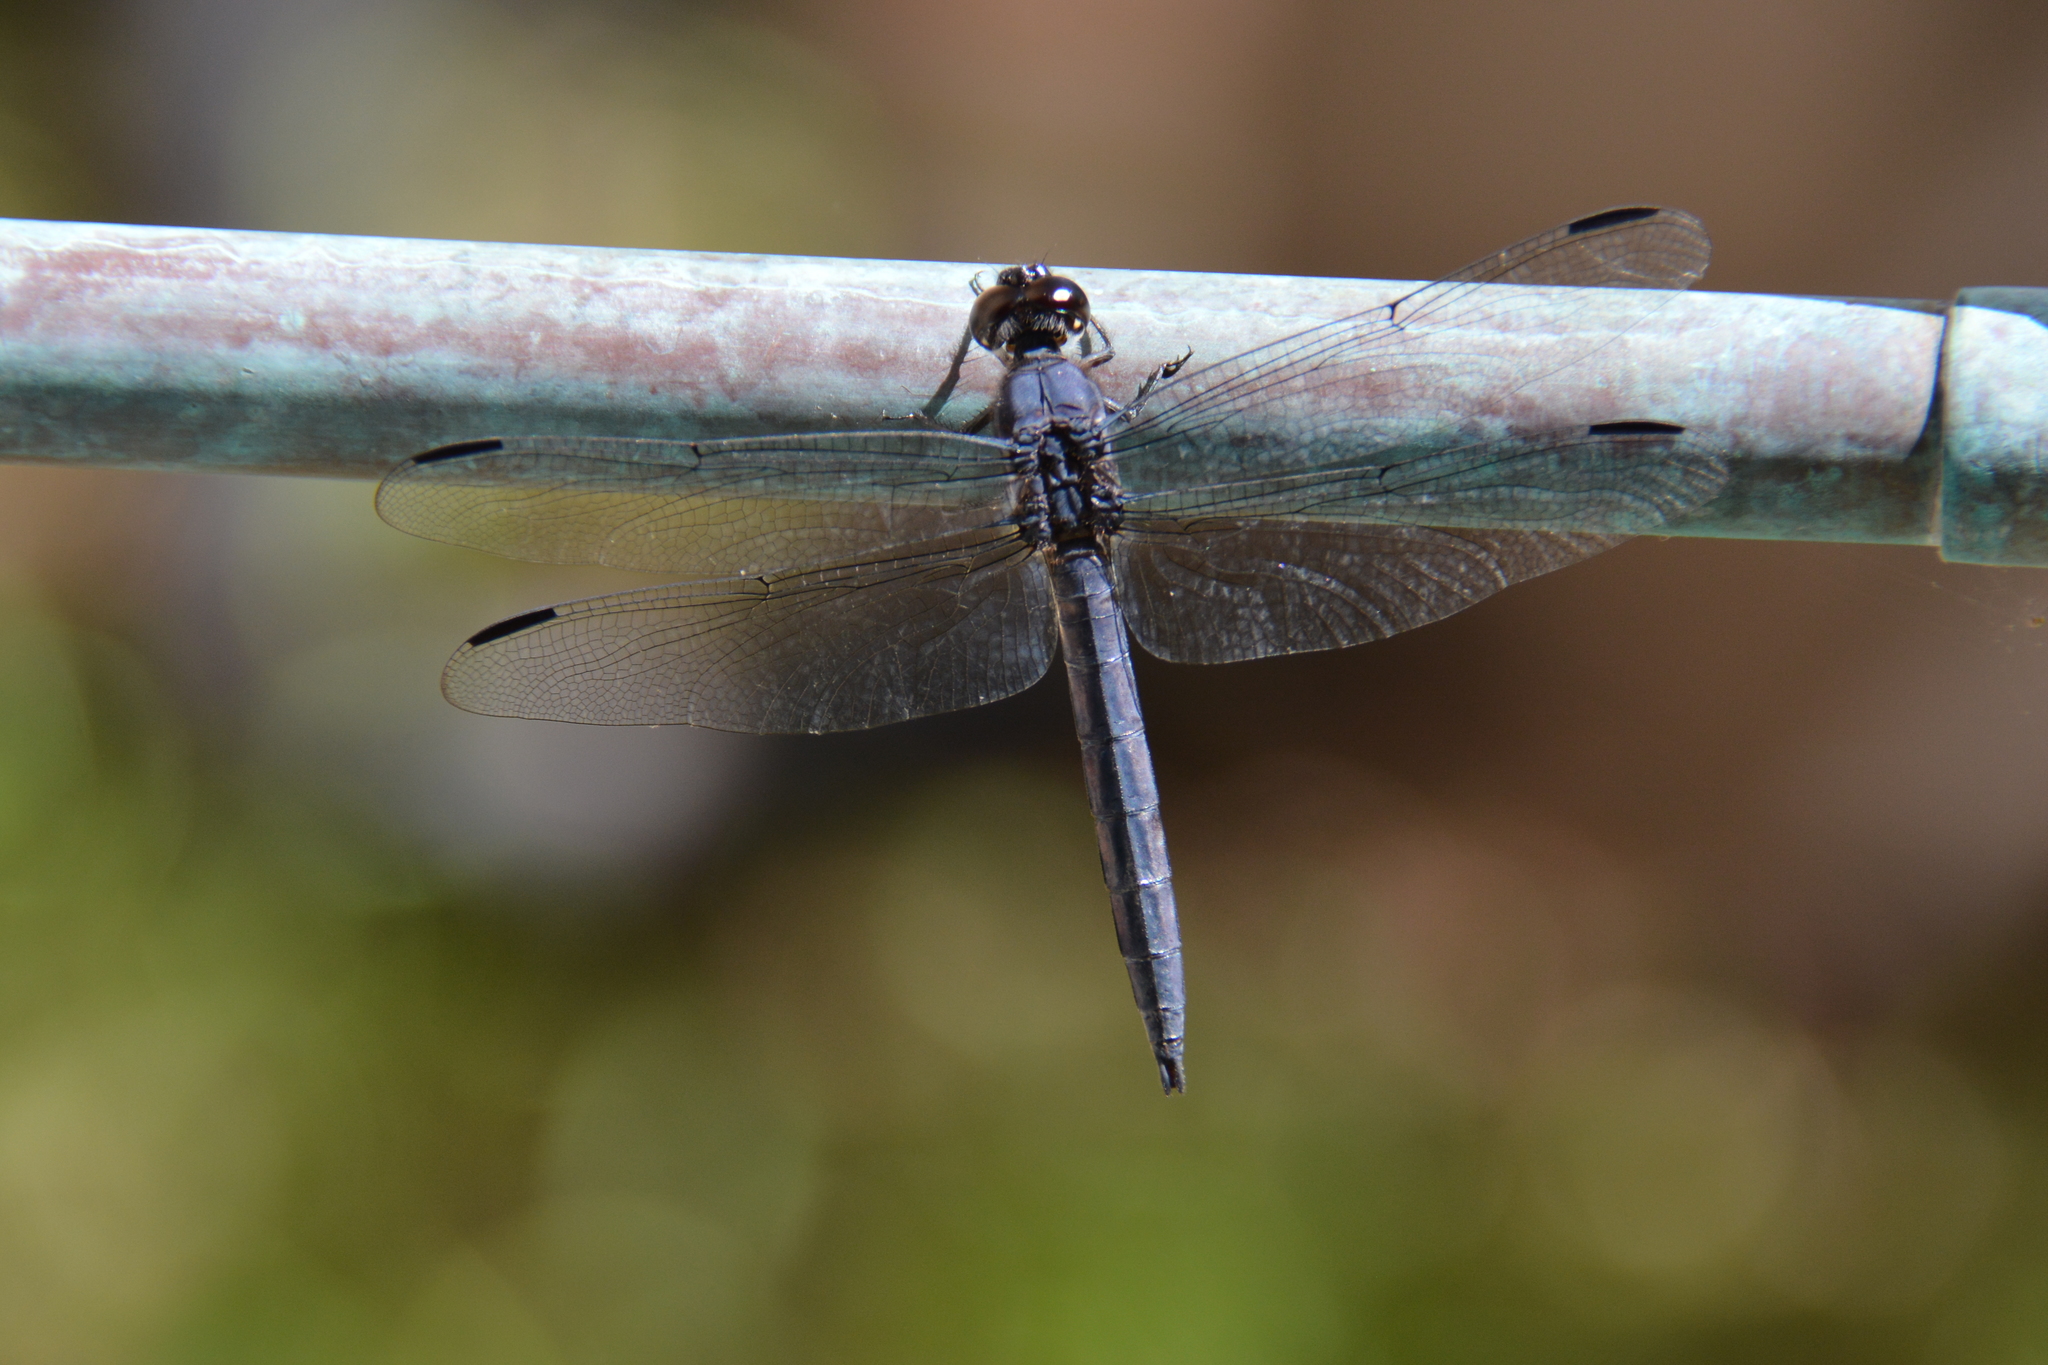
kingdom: Animalia
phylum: Arthropoda
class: Insecta
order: Odonata
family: Libellulidae
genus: Libellula
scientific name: Libellula incesta
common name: Slaty skimmer
